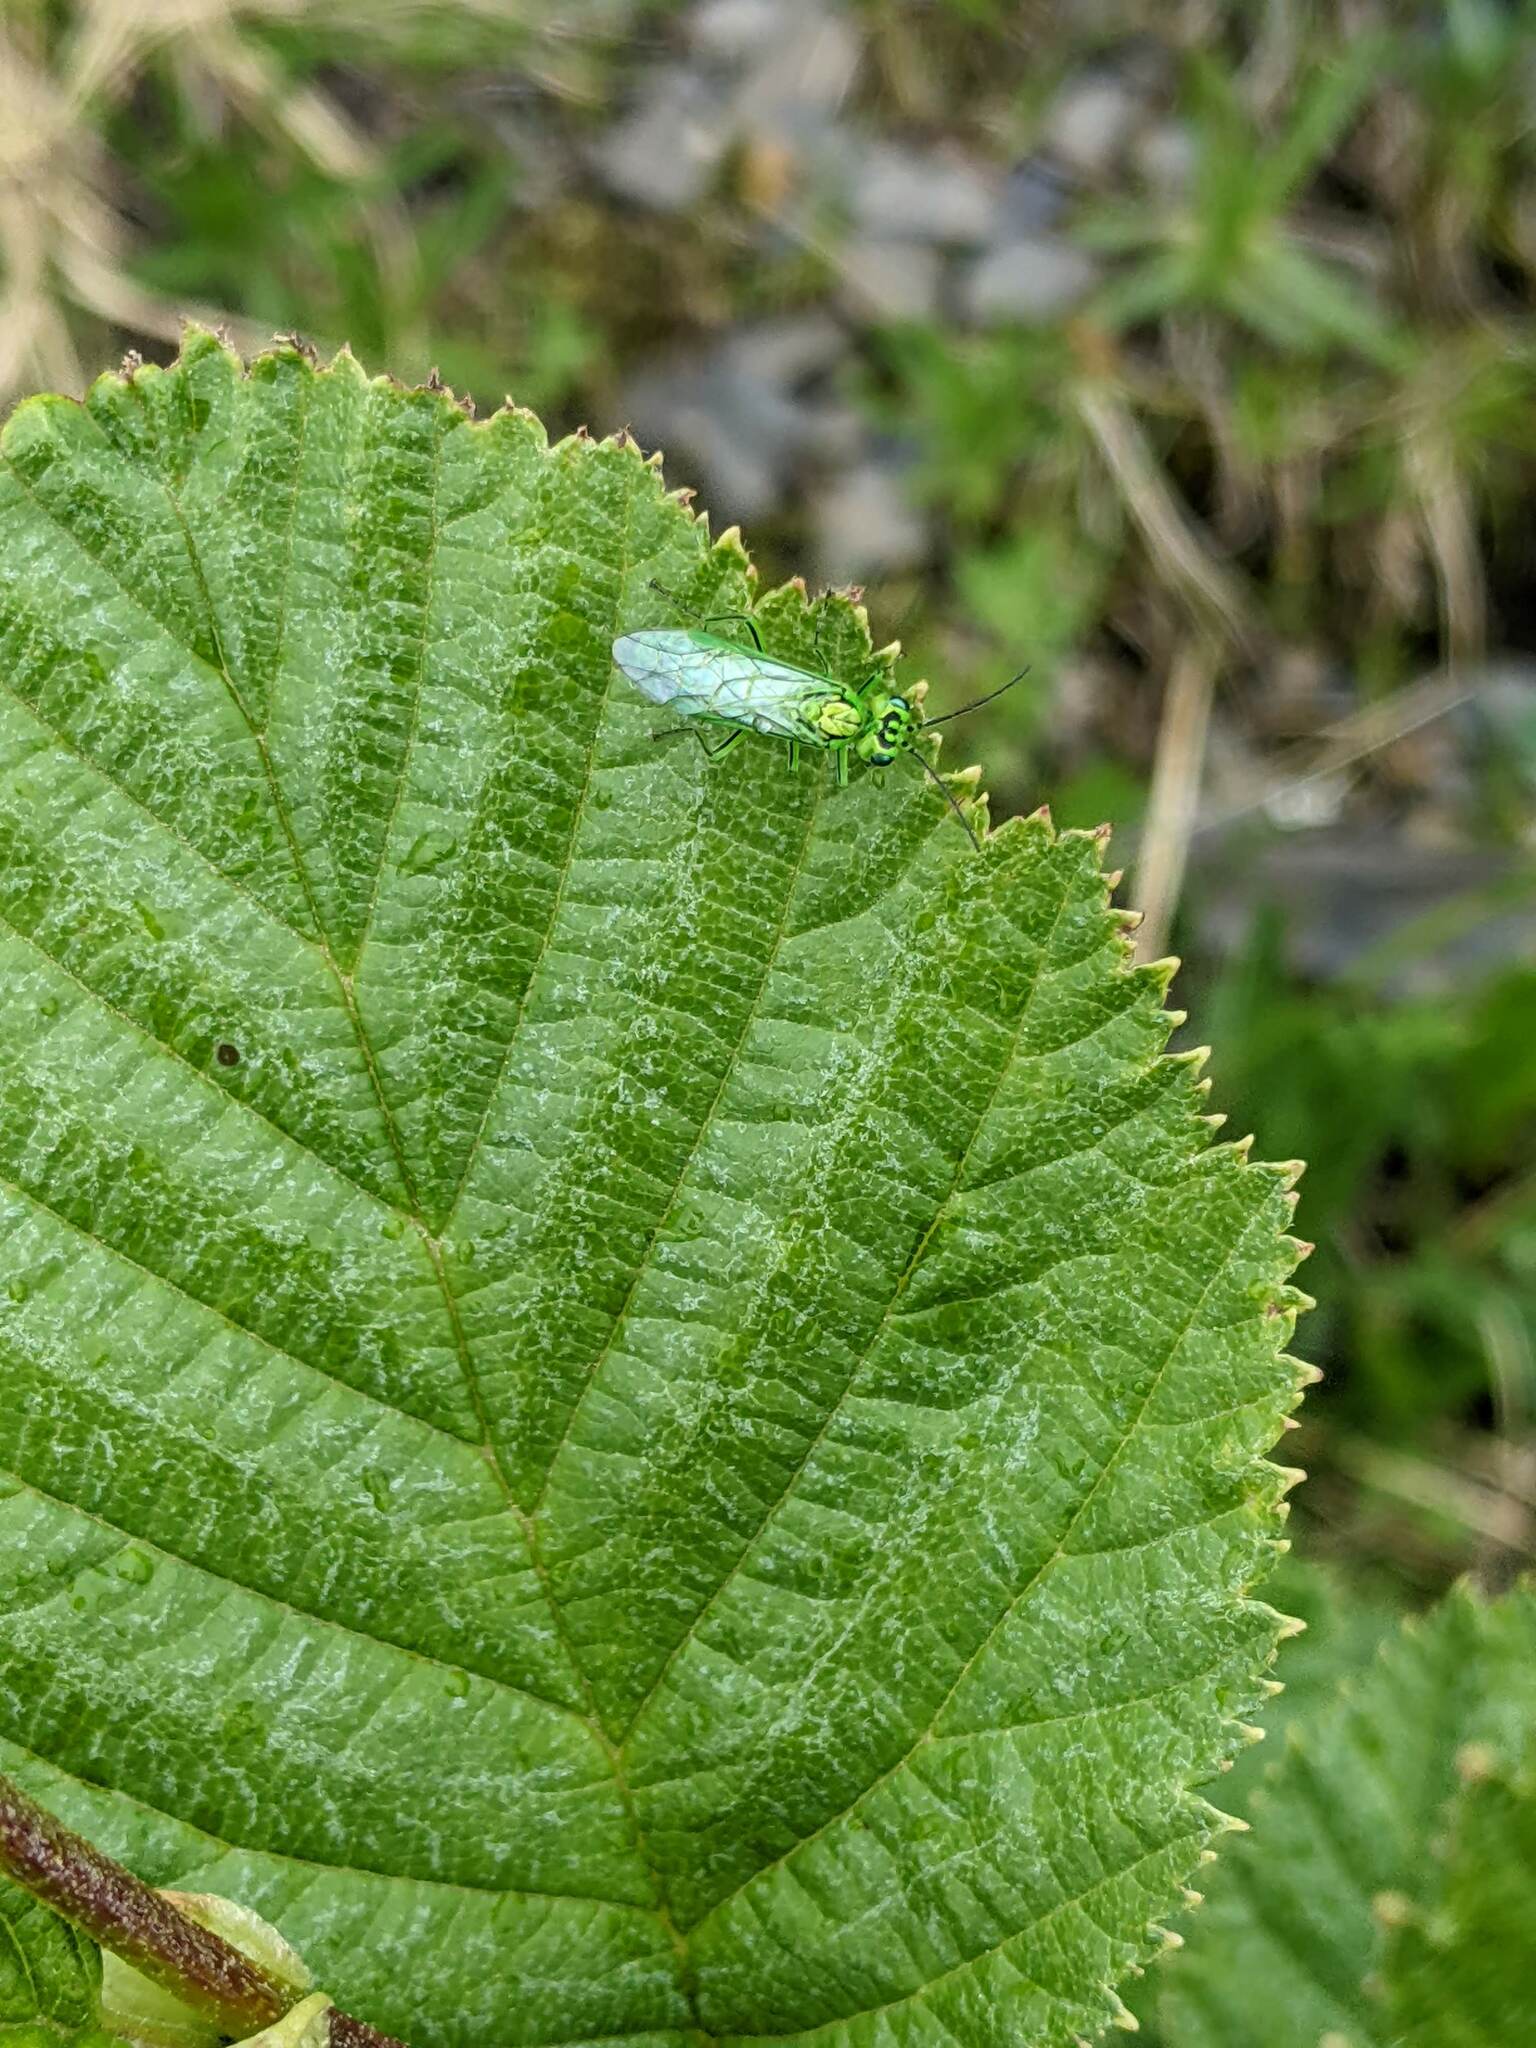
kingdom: Animalia
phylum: Arthropoda
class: Insecta
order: Hymenoptera
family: Tenthredinidae
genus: Rhogogaster
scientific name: Rhogogaster punctulata
